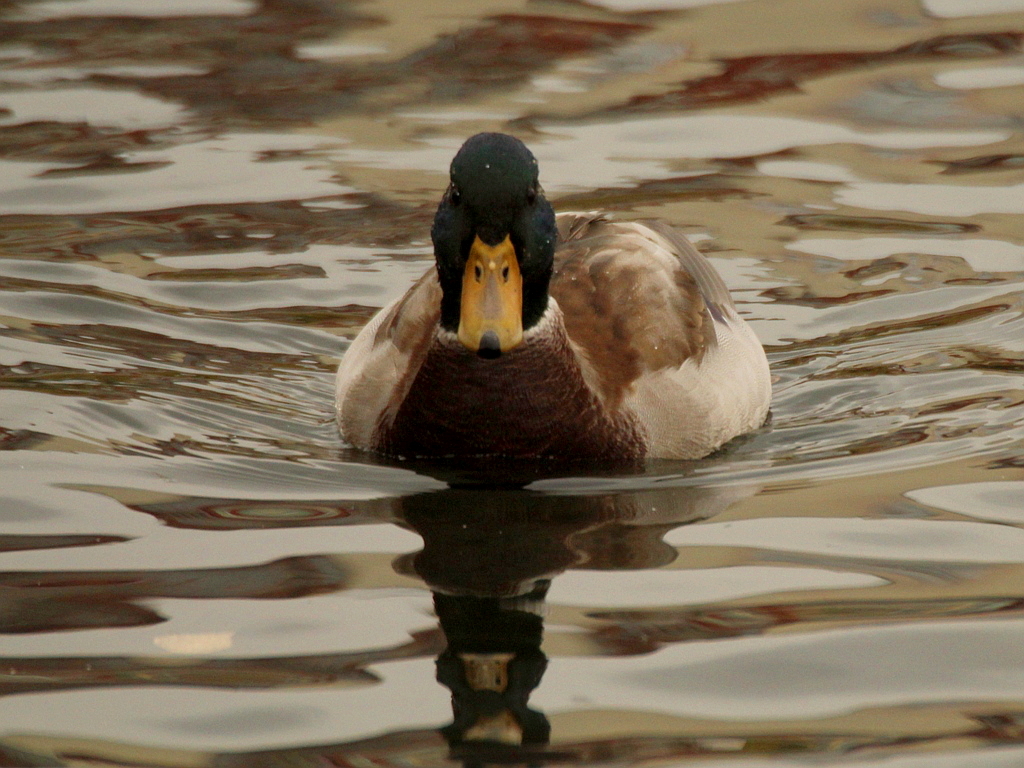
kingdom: Animalia
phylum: Chordata
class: Aves
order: Anseriformes
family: Anatidae
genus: Anas
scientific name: Anas platyrhynchos
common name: Mallard
